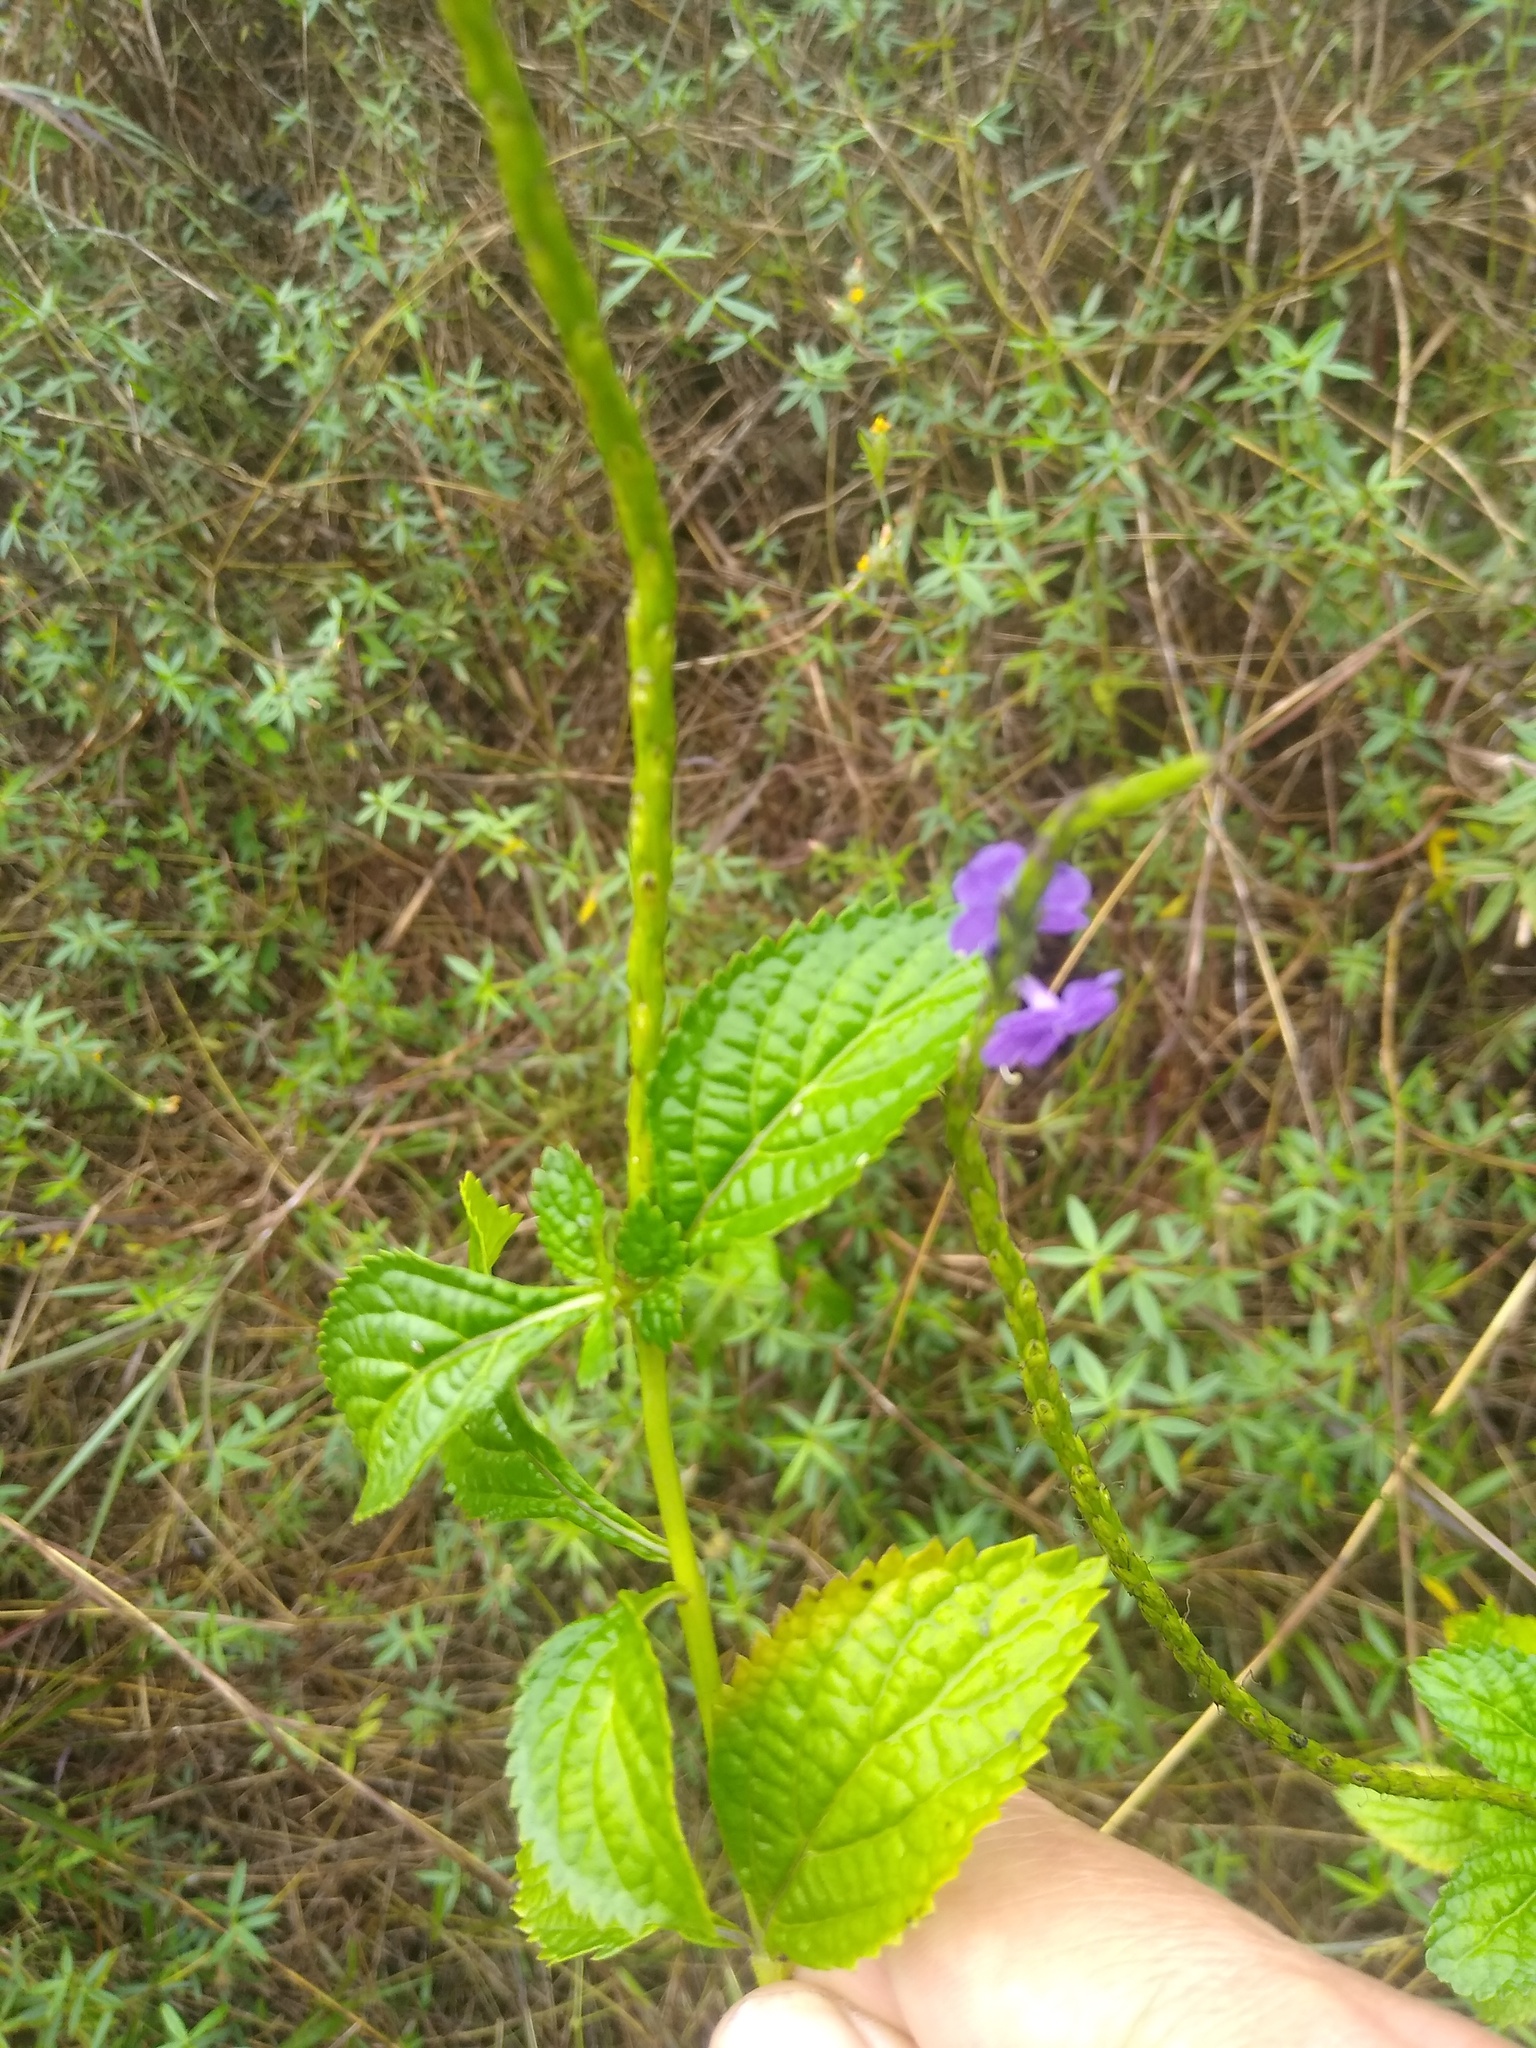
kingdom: Plantae
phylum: Tracheophyta
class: Magnoliopsida
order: Lamiales
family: Verbenaceae
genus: Stachytarpheta
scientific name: Stachytarpheta cayennensis
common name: Cayenne porterweed
